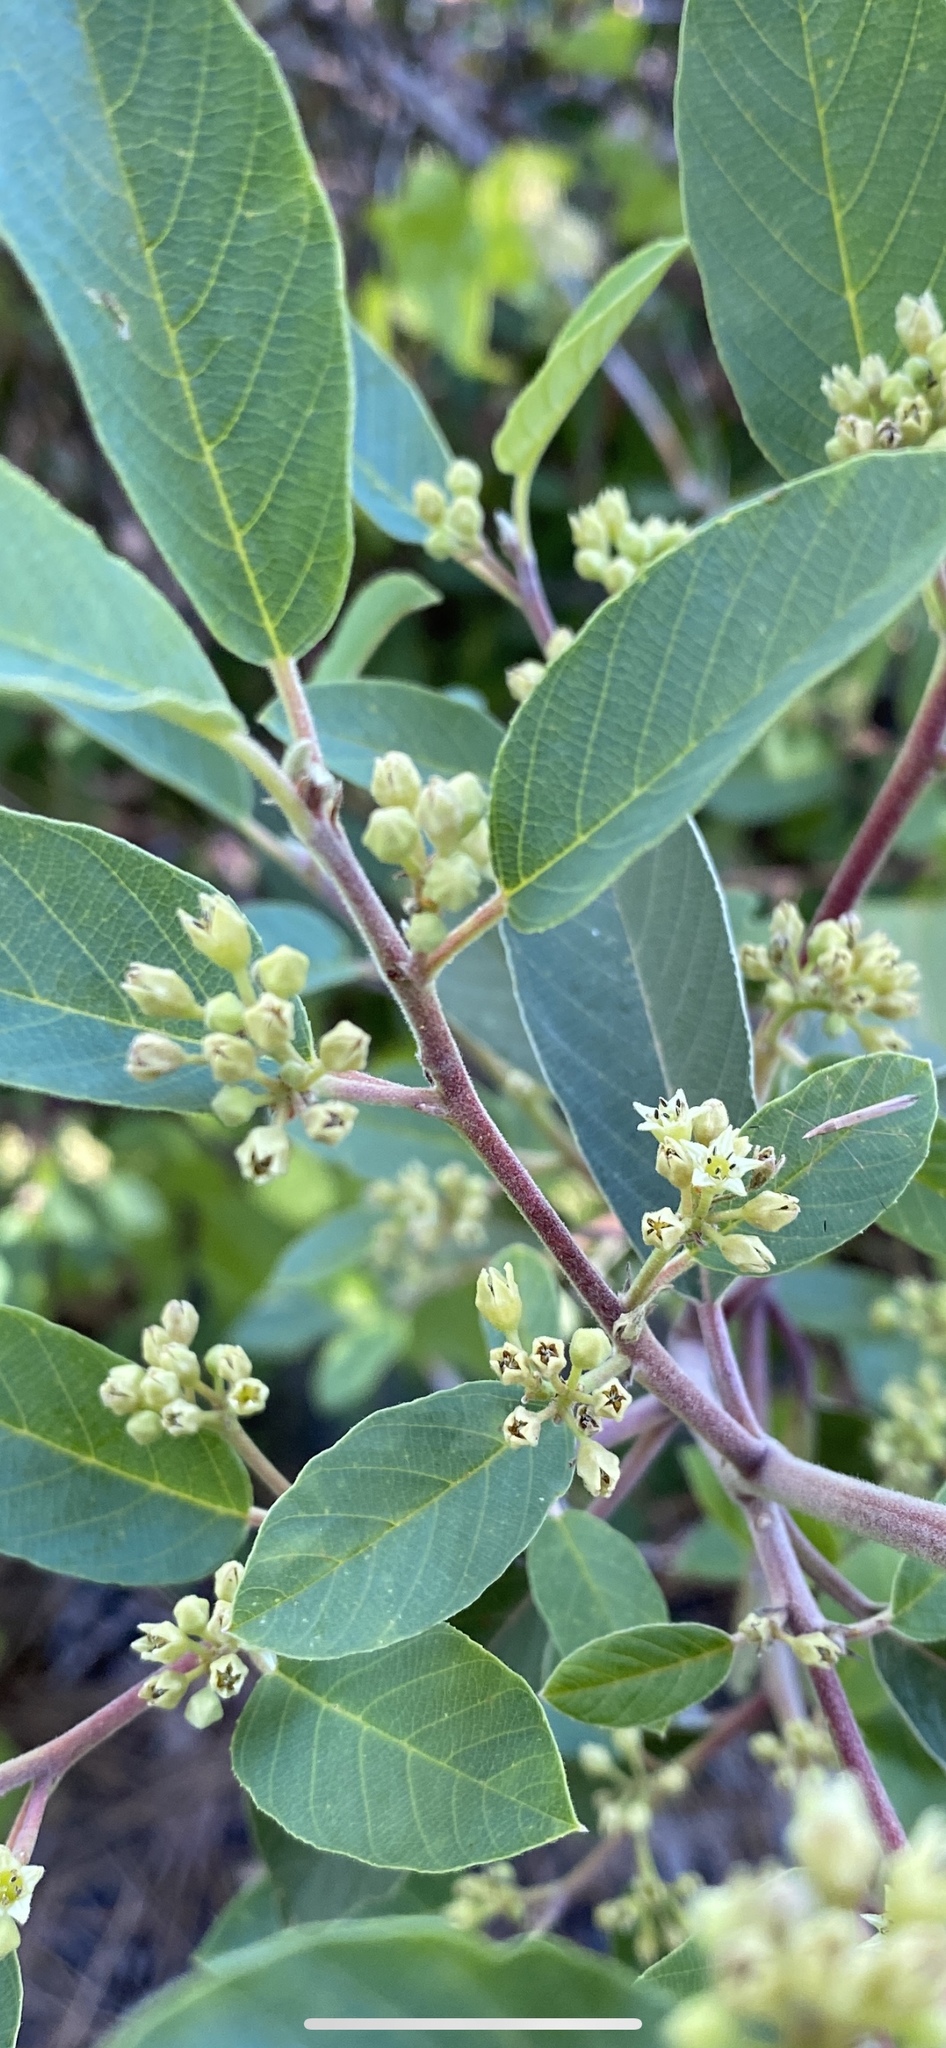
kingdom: Plantae
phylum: Tracheophyta
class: Magnoliopsida
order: Rosales
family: Rhamnaceae
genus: Frangula
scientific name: Frangula californica
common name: California buckthorn
